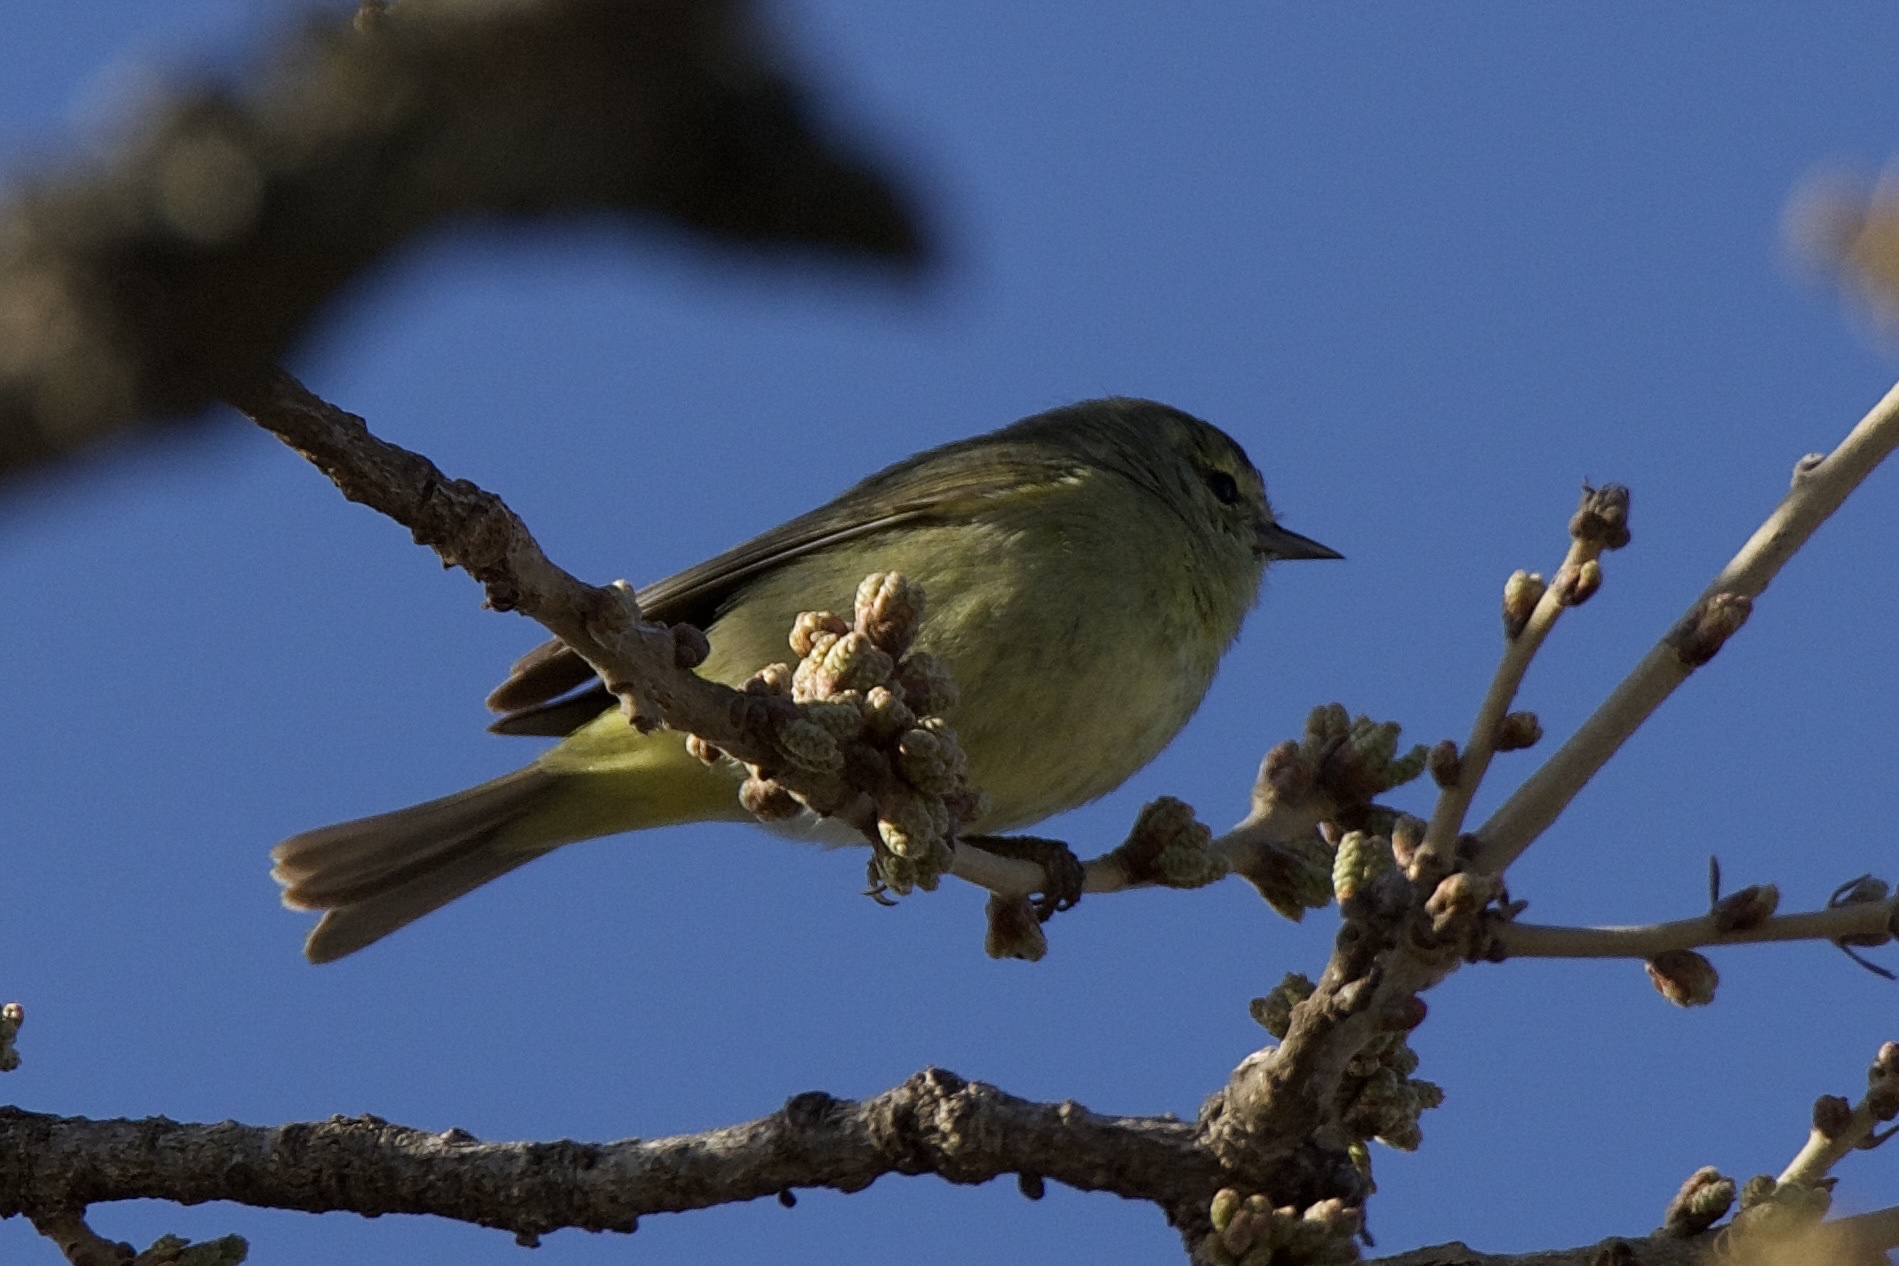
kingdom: Animalia
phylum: Chordata
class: Aves
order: Passeriformes
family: Parulidae
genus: Leiothlypis
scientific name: Leiothlypis celata
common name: Orange-crowned warbler
